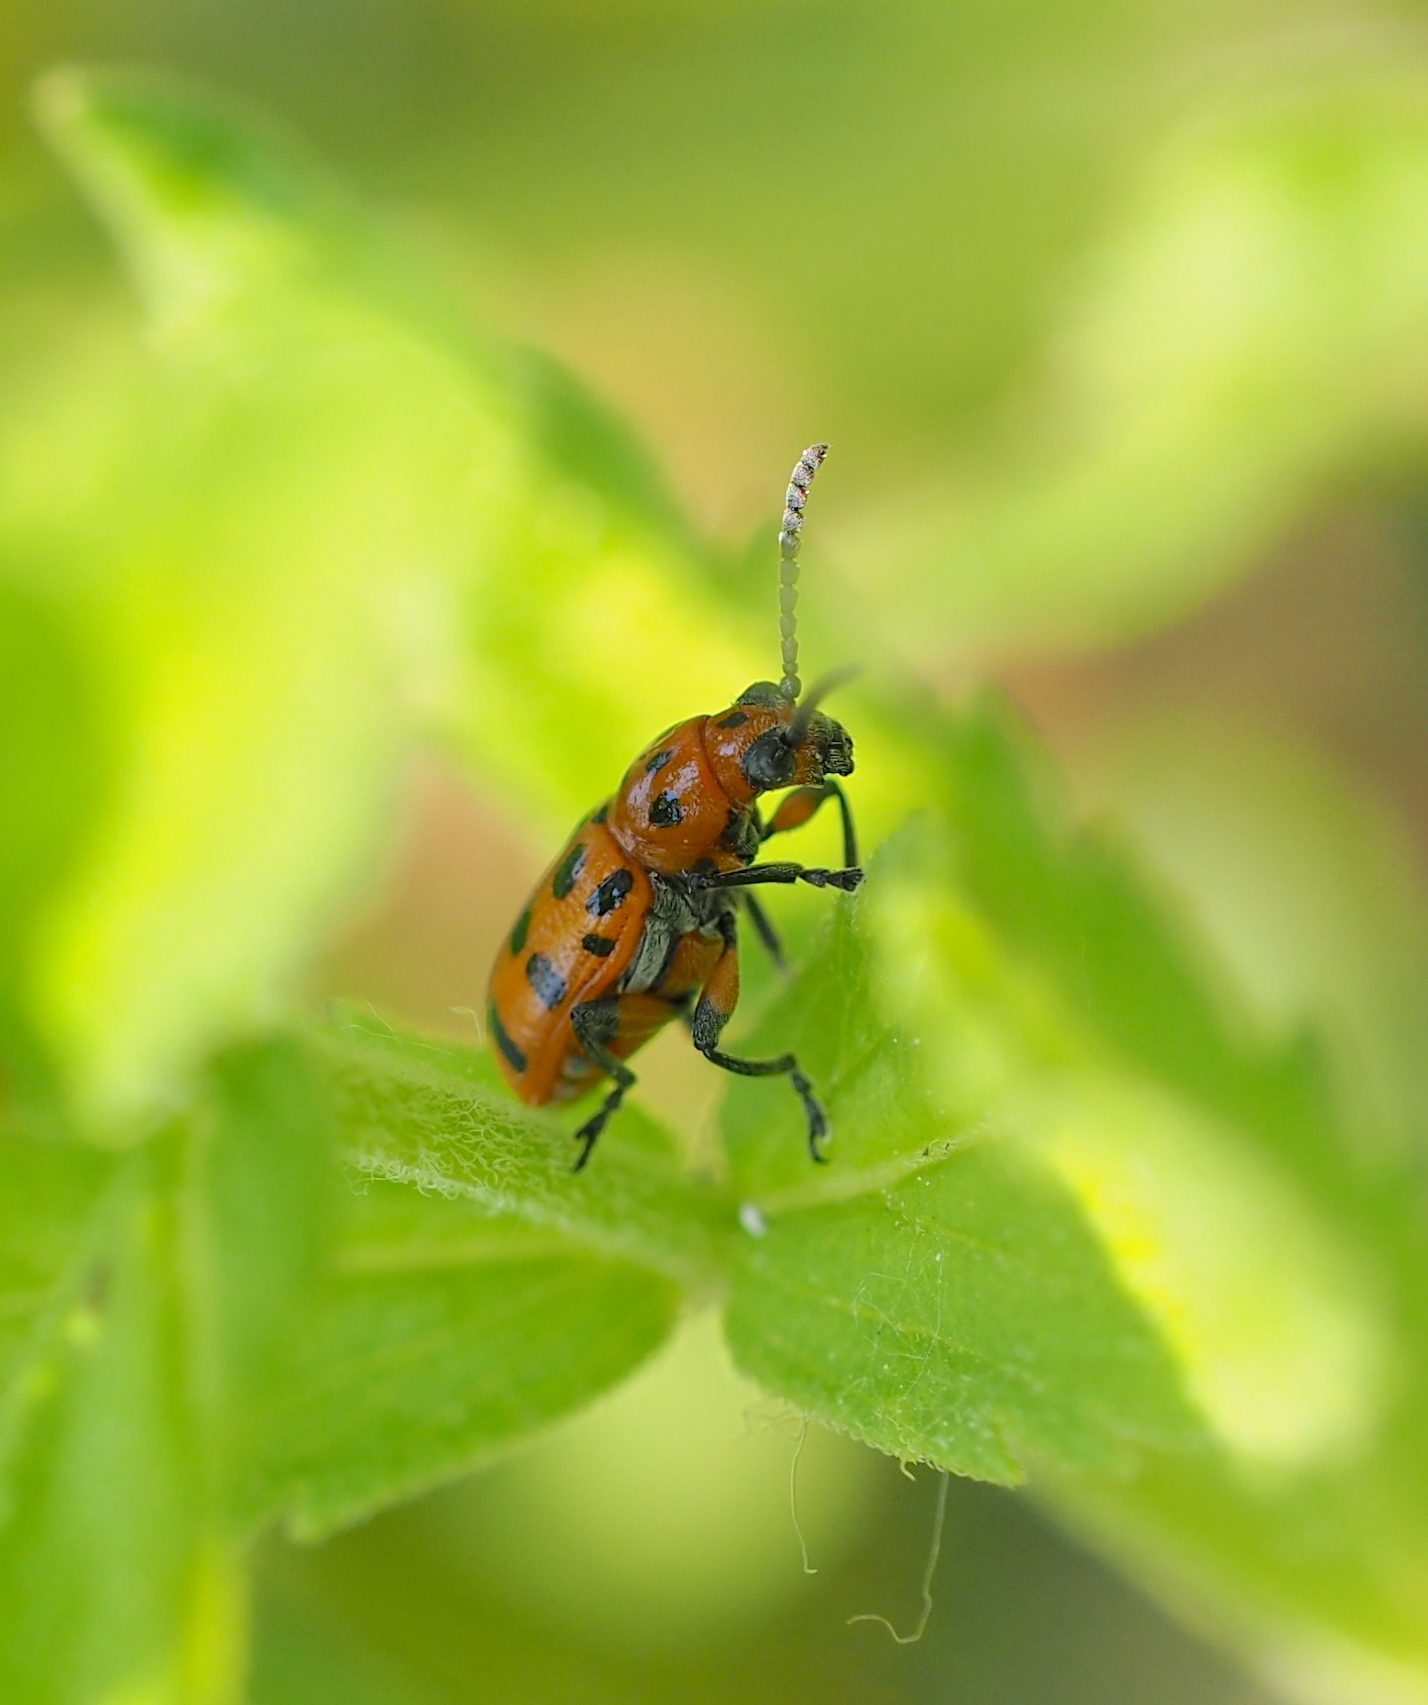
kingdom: Animalia
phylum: Arthropoda
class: Insecta
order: Coleoptera
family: Chrysomelidae
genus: Crioceris
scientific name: Crioceris quatuordecimpunctata
